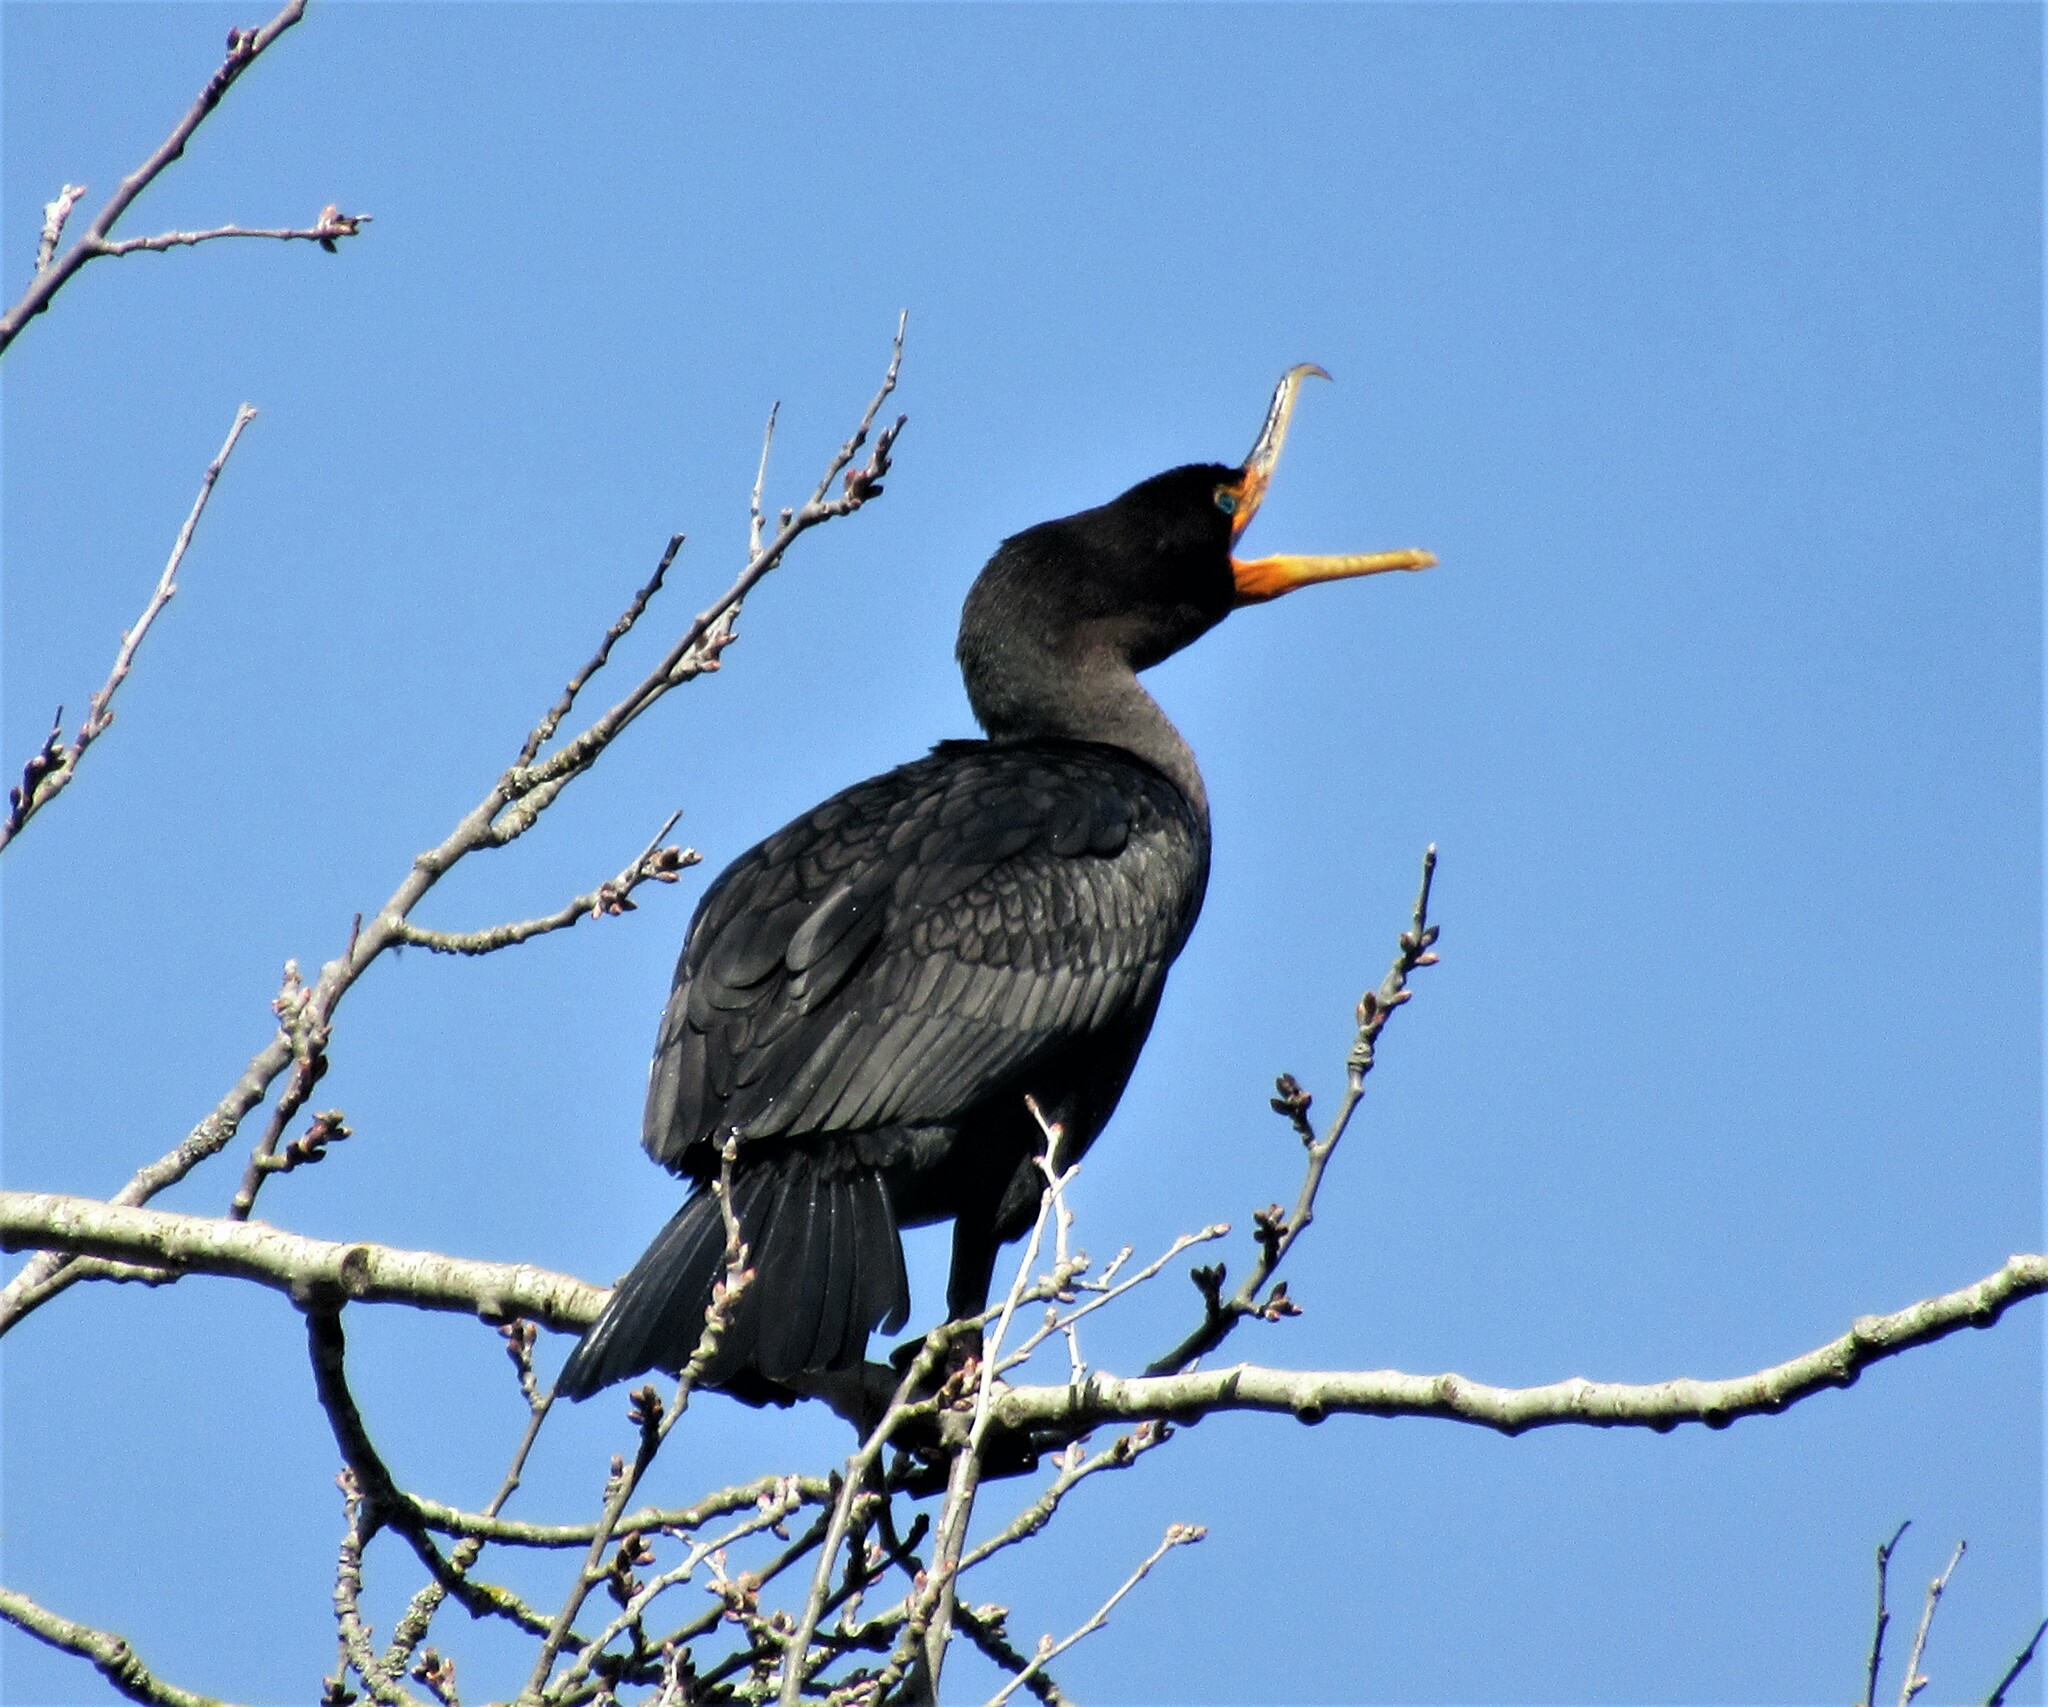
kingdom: Animalia
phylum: Chordata
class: Aves
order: Suliformes
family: Phalacrocoracidae
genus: Phalacrocorax
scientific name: Phalacrocorax auritus
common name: Double-crested cormorant
